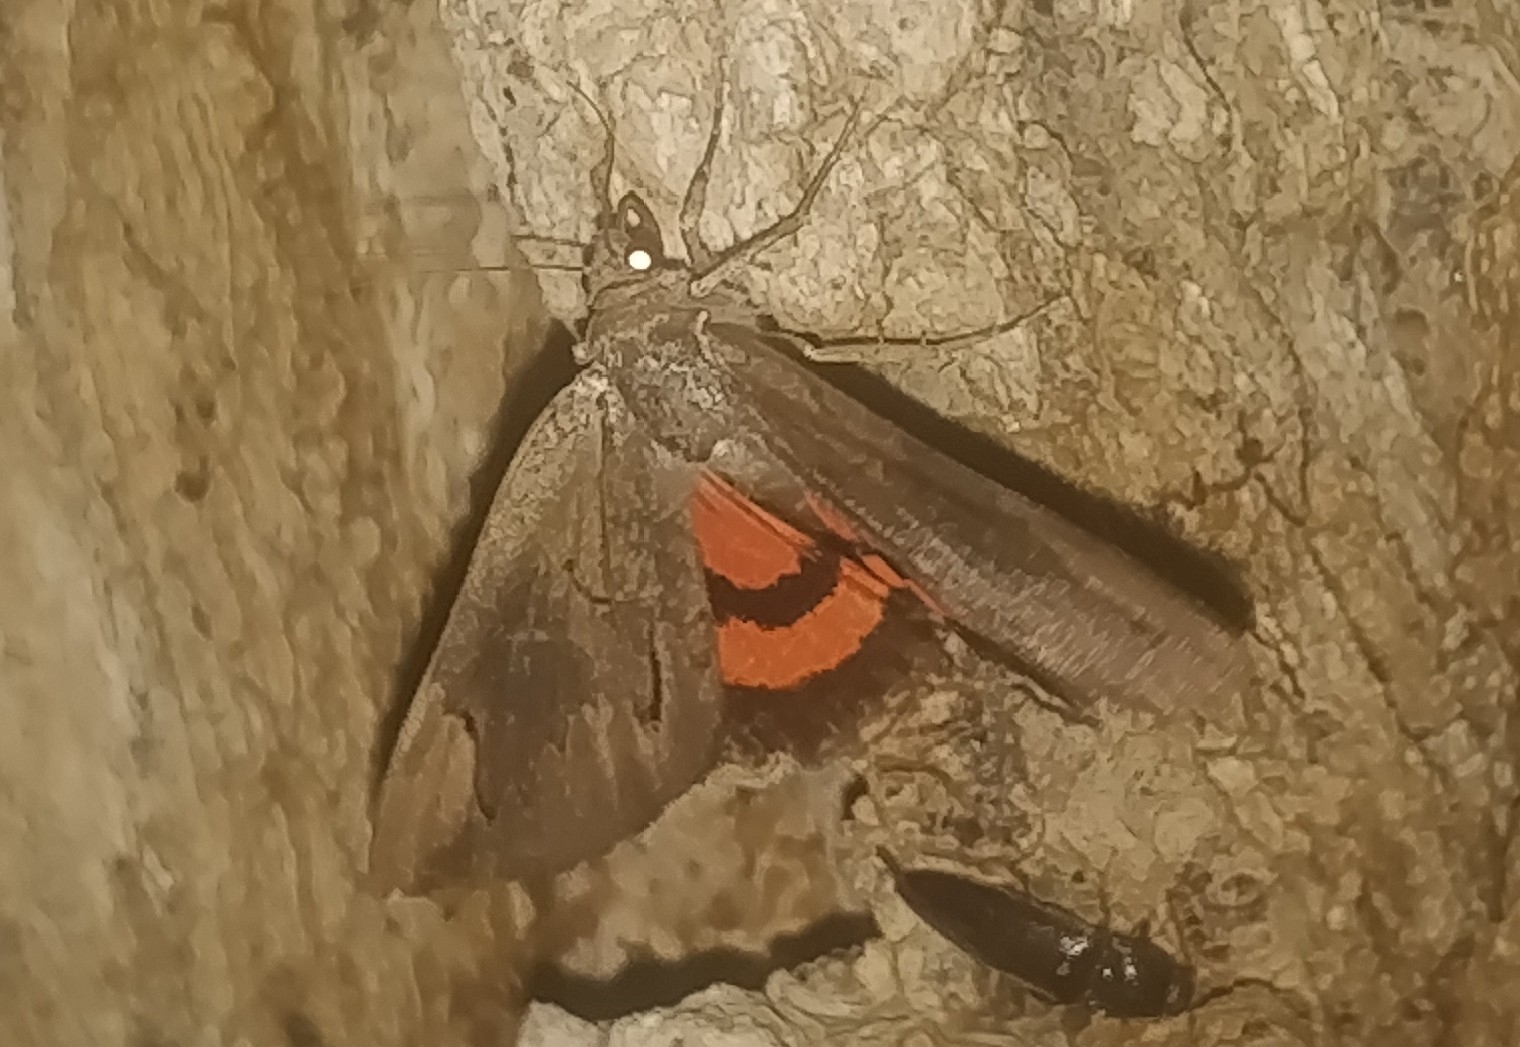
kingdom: Animalia
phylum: Arthropoda
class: Insecta
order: Lepidoptera
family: Erebidae
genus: Catocala
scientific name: Catocala ultronia
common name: Ultronia underwing
